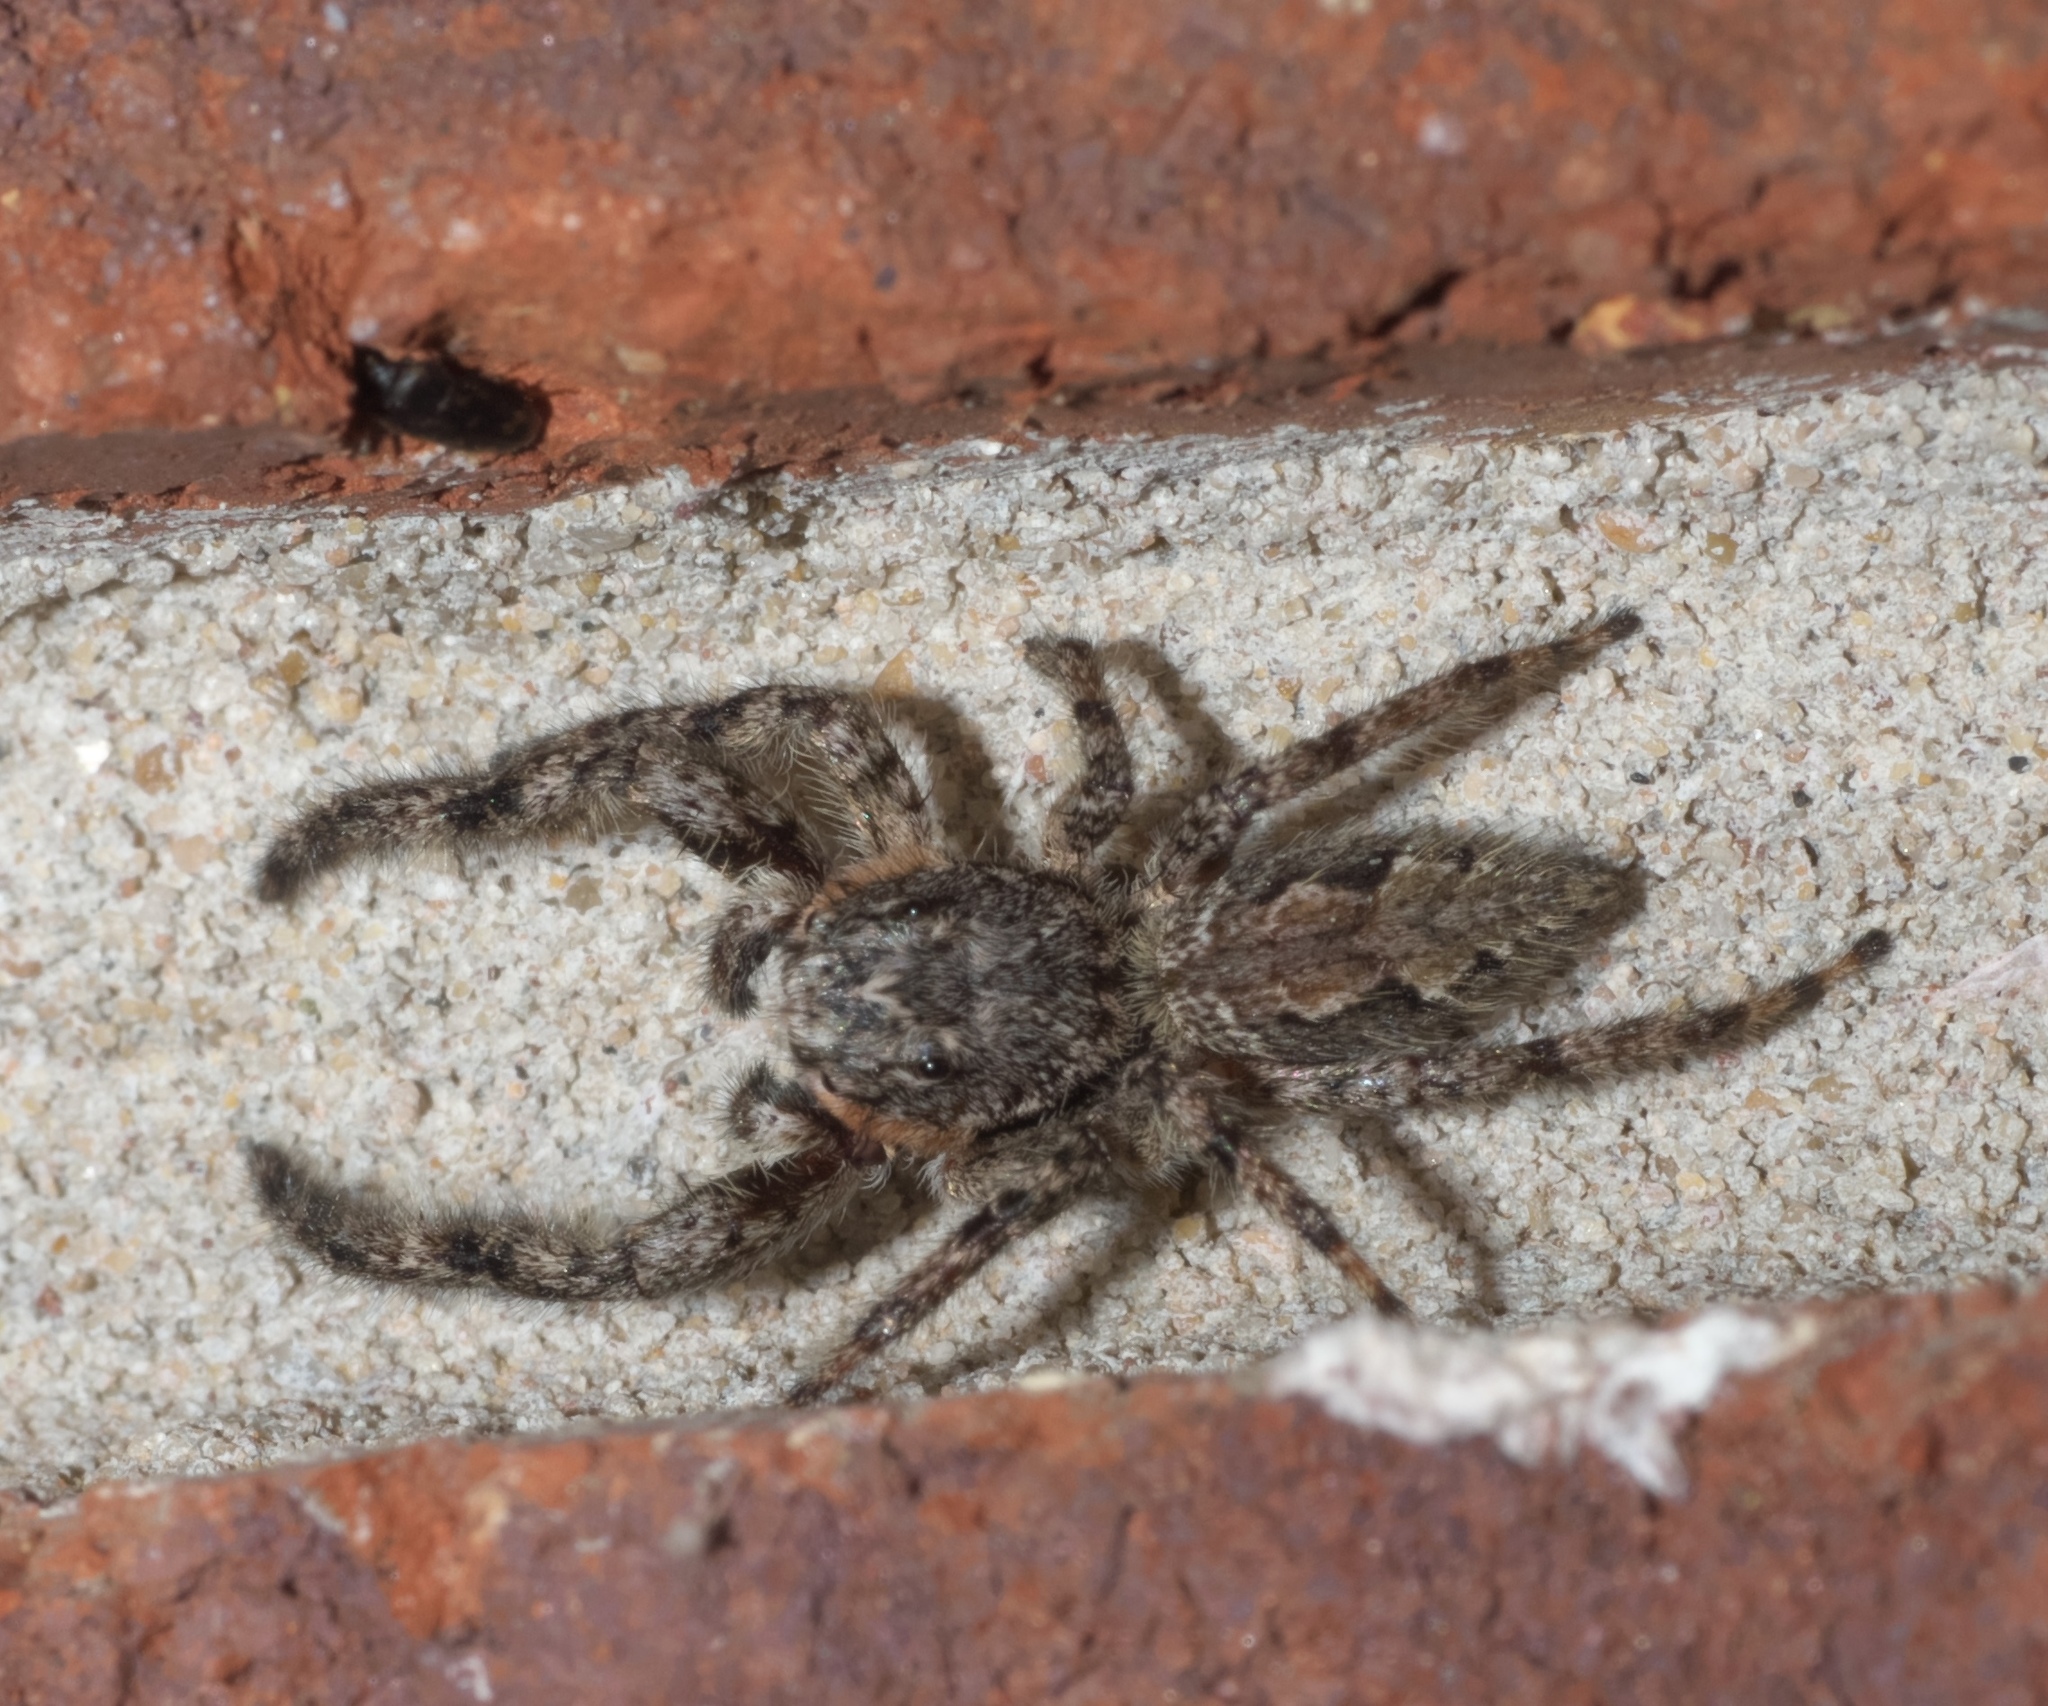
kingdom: Animalia
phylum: Arthropoda
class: Arachnida
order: Araneae
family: Salticidae
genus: Platycryptus
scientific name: Platycryptus undatus
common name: Tan jumping spider
